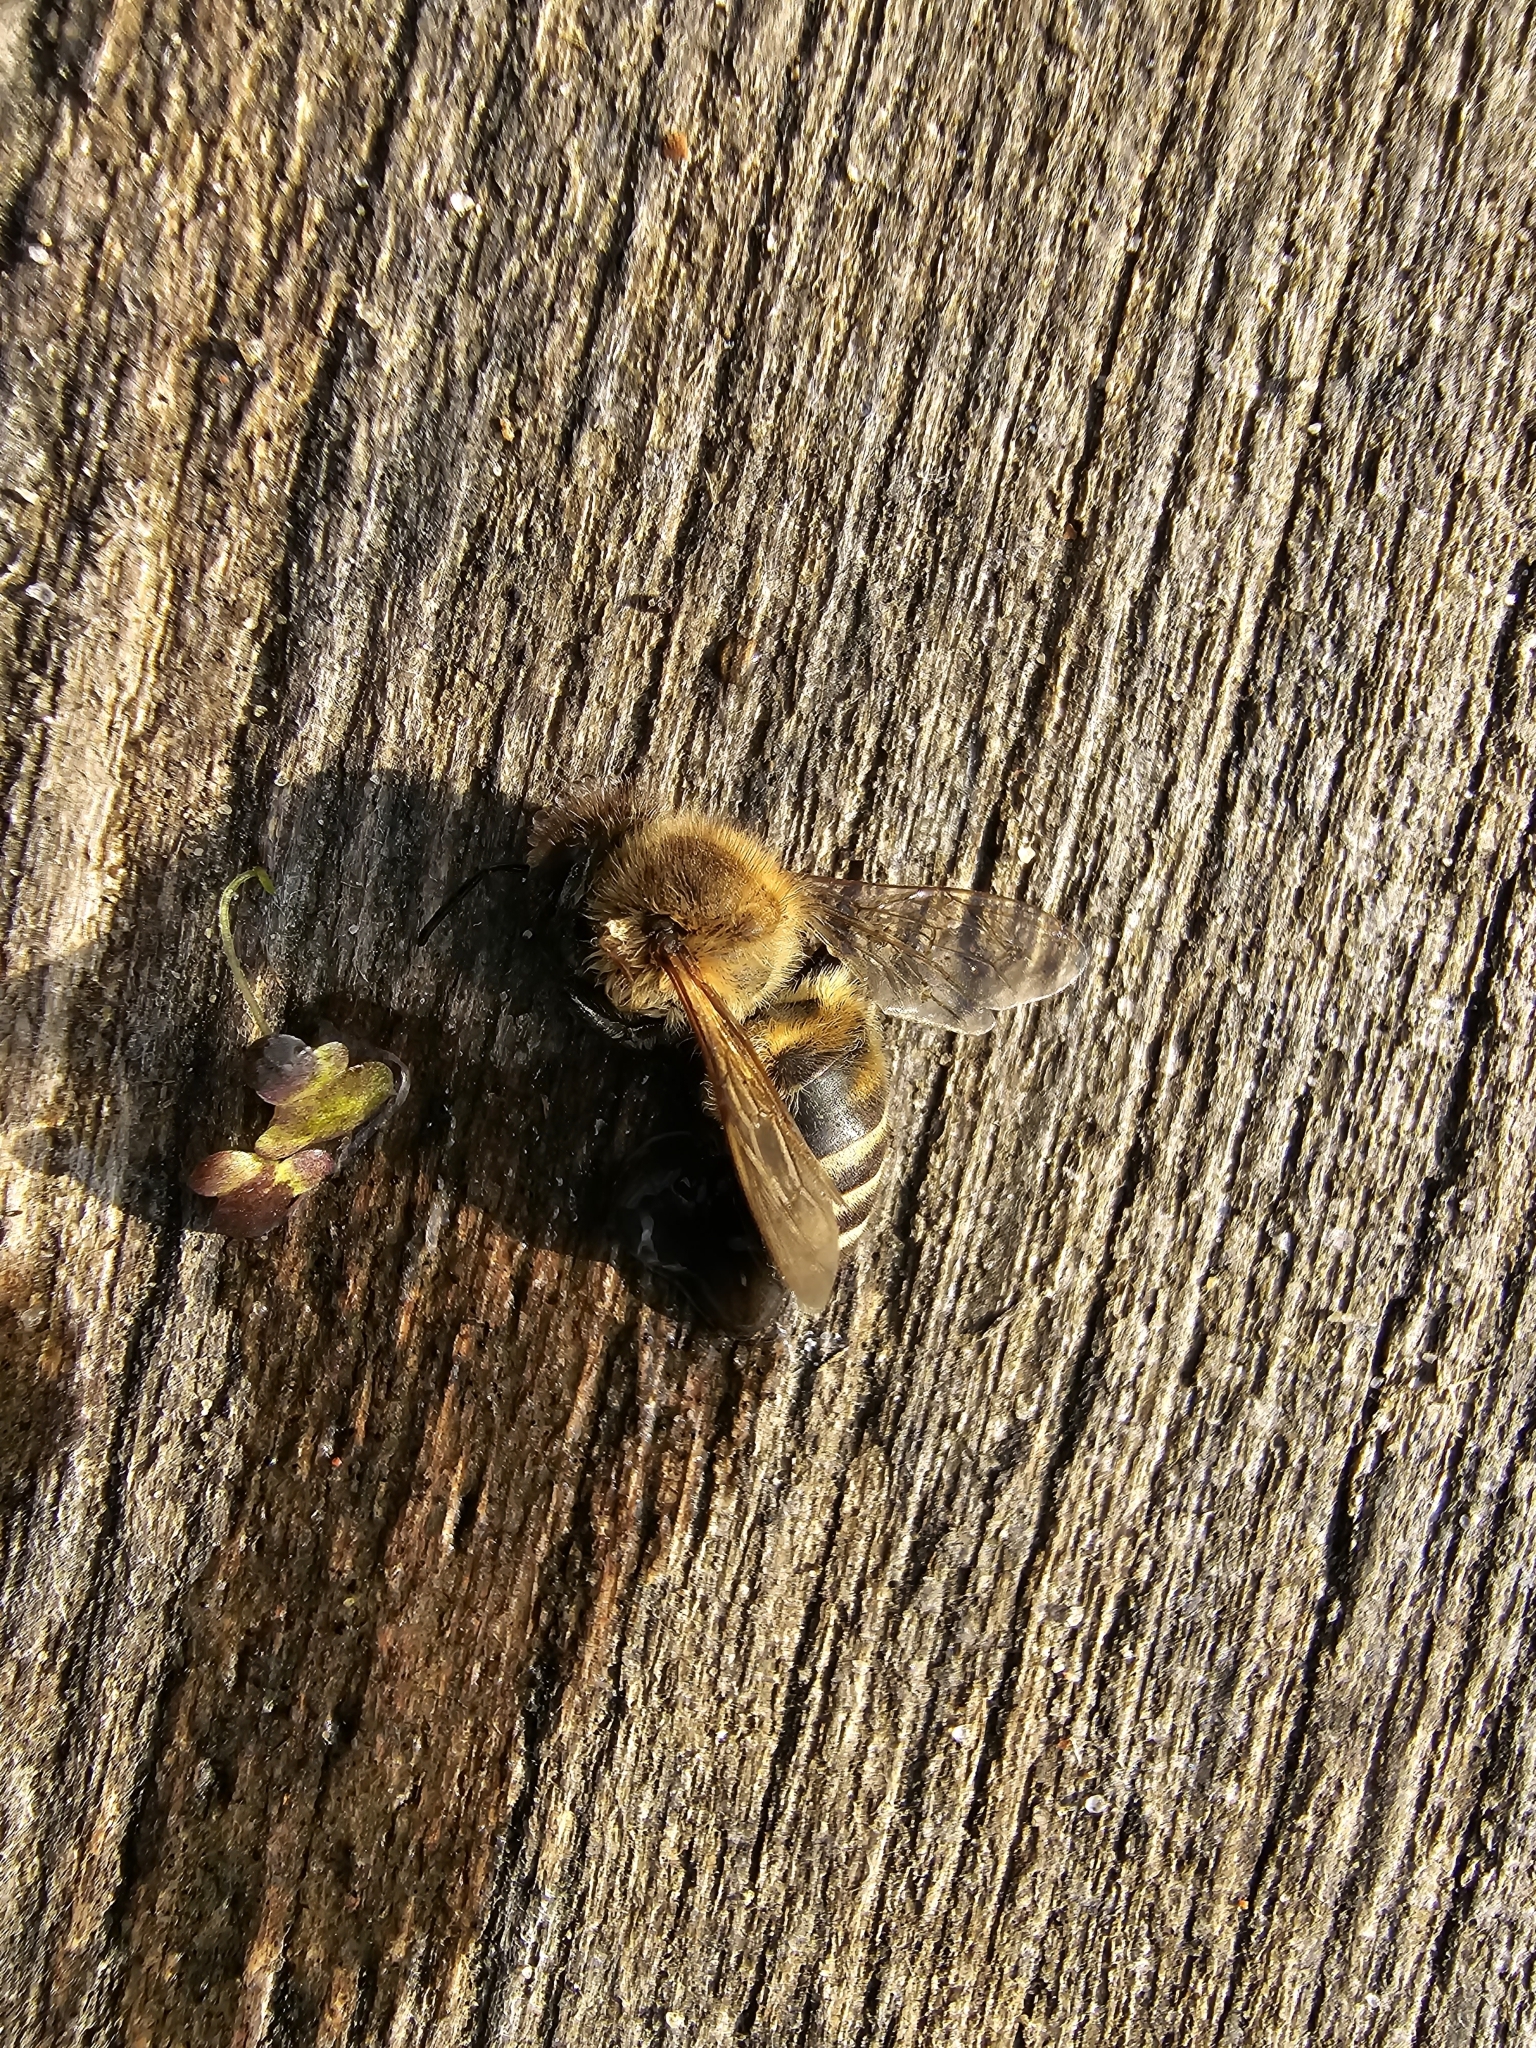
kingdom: Animalia
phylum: Arthropoda
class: Insecta
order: Hymenoptera
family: Apidae
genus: Apis
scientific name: Apis mellifera
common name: Honey bee
